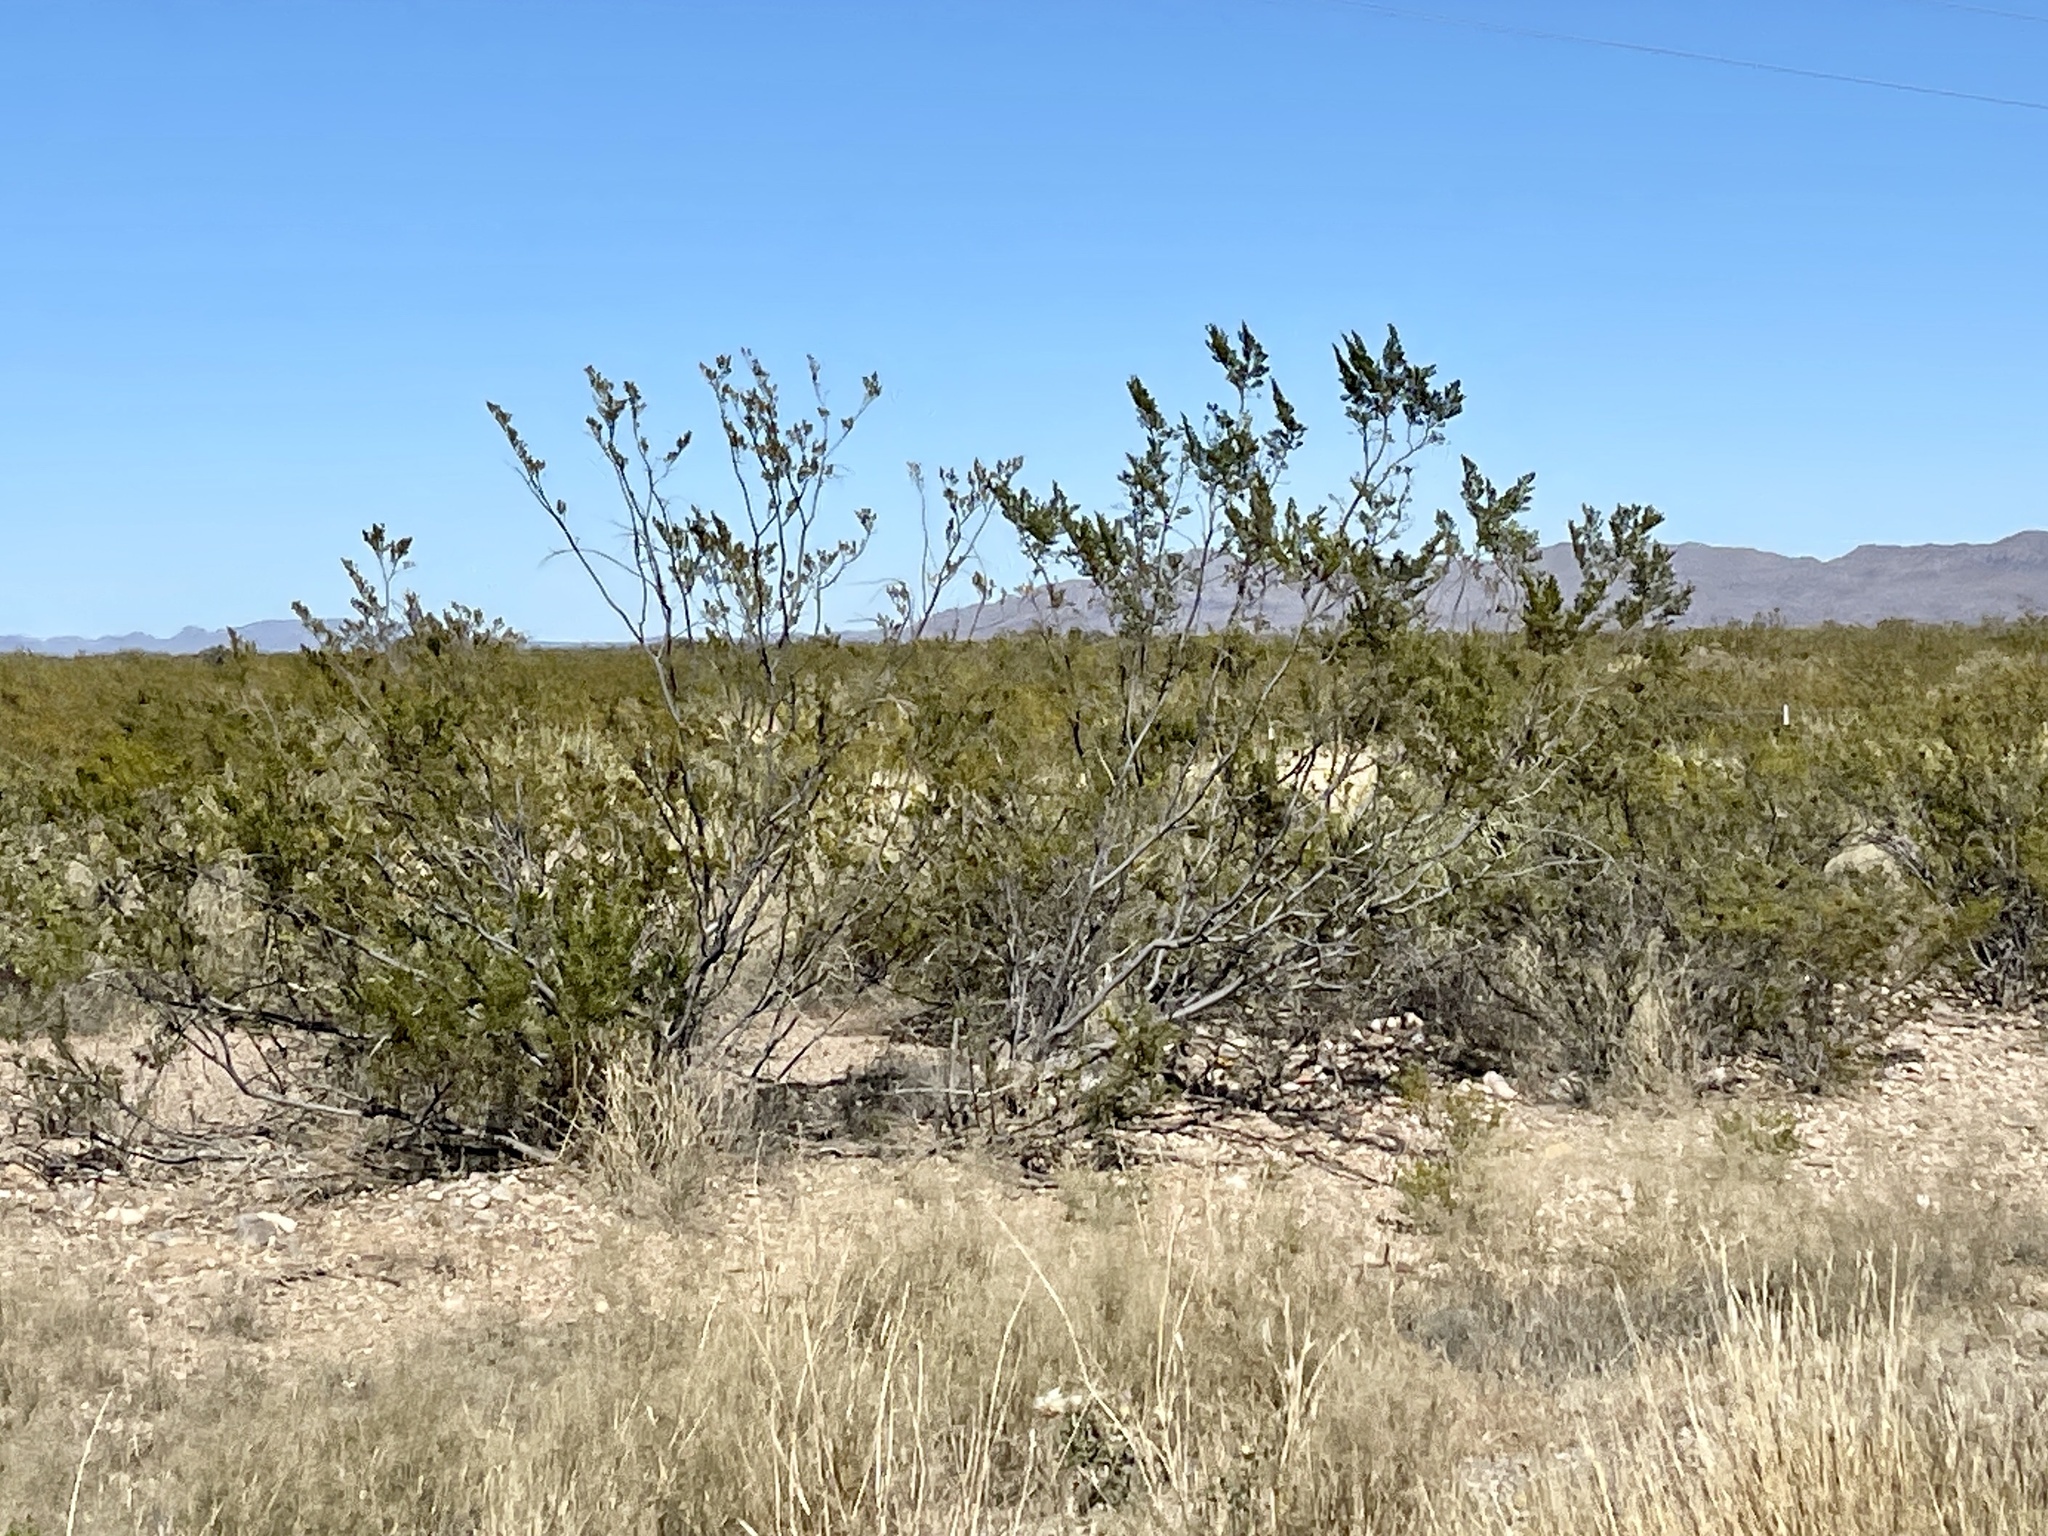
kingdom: Plantae
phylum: Tracheophyta
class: Magnoliopsida
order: Zygophyllales
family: Zygophyllaceae
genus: Larrea
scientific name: Larrea tridentata
